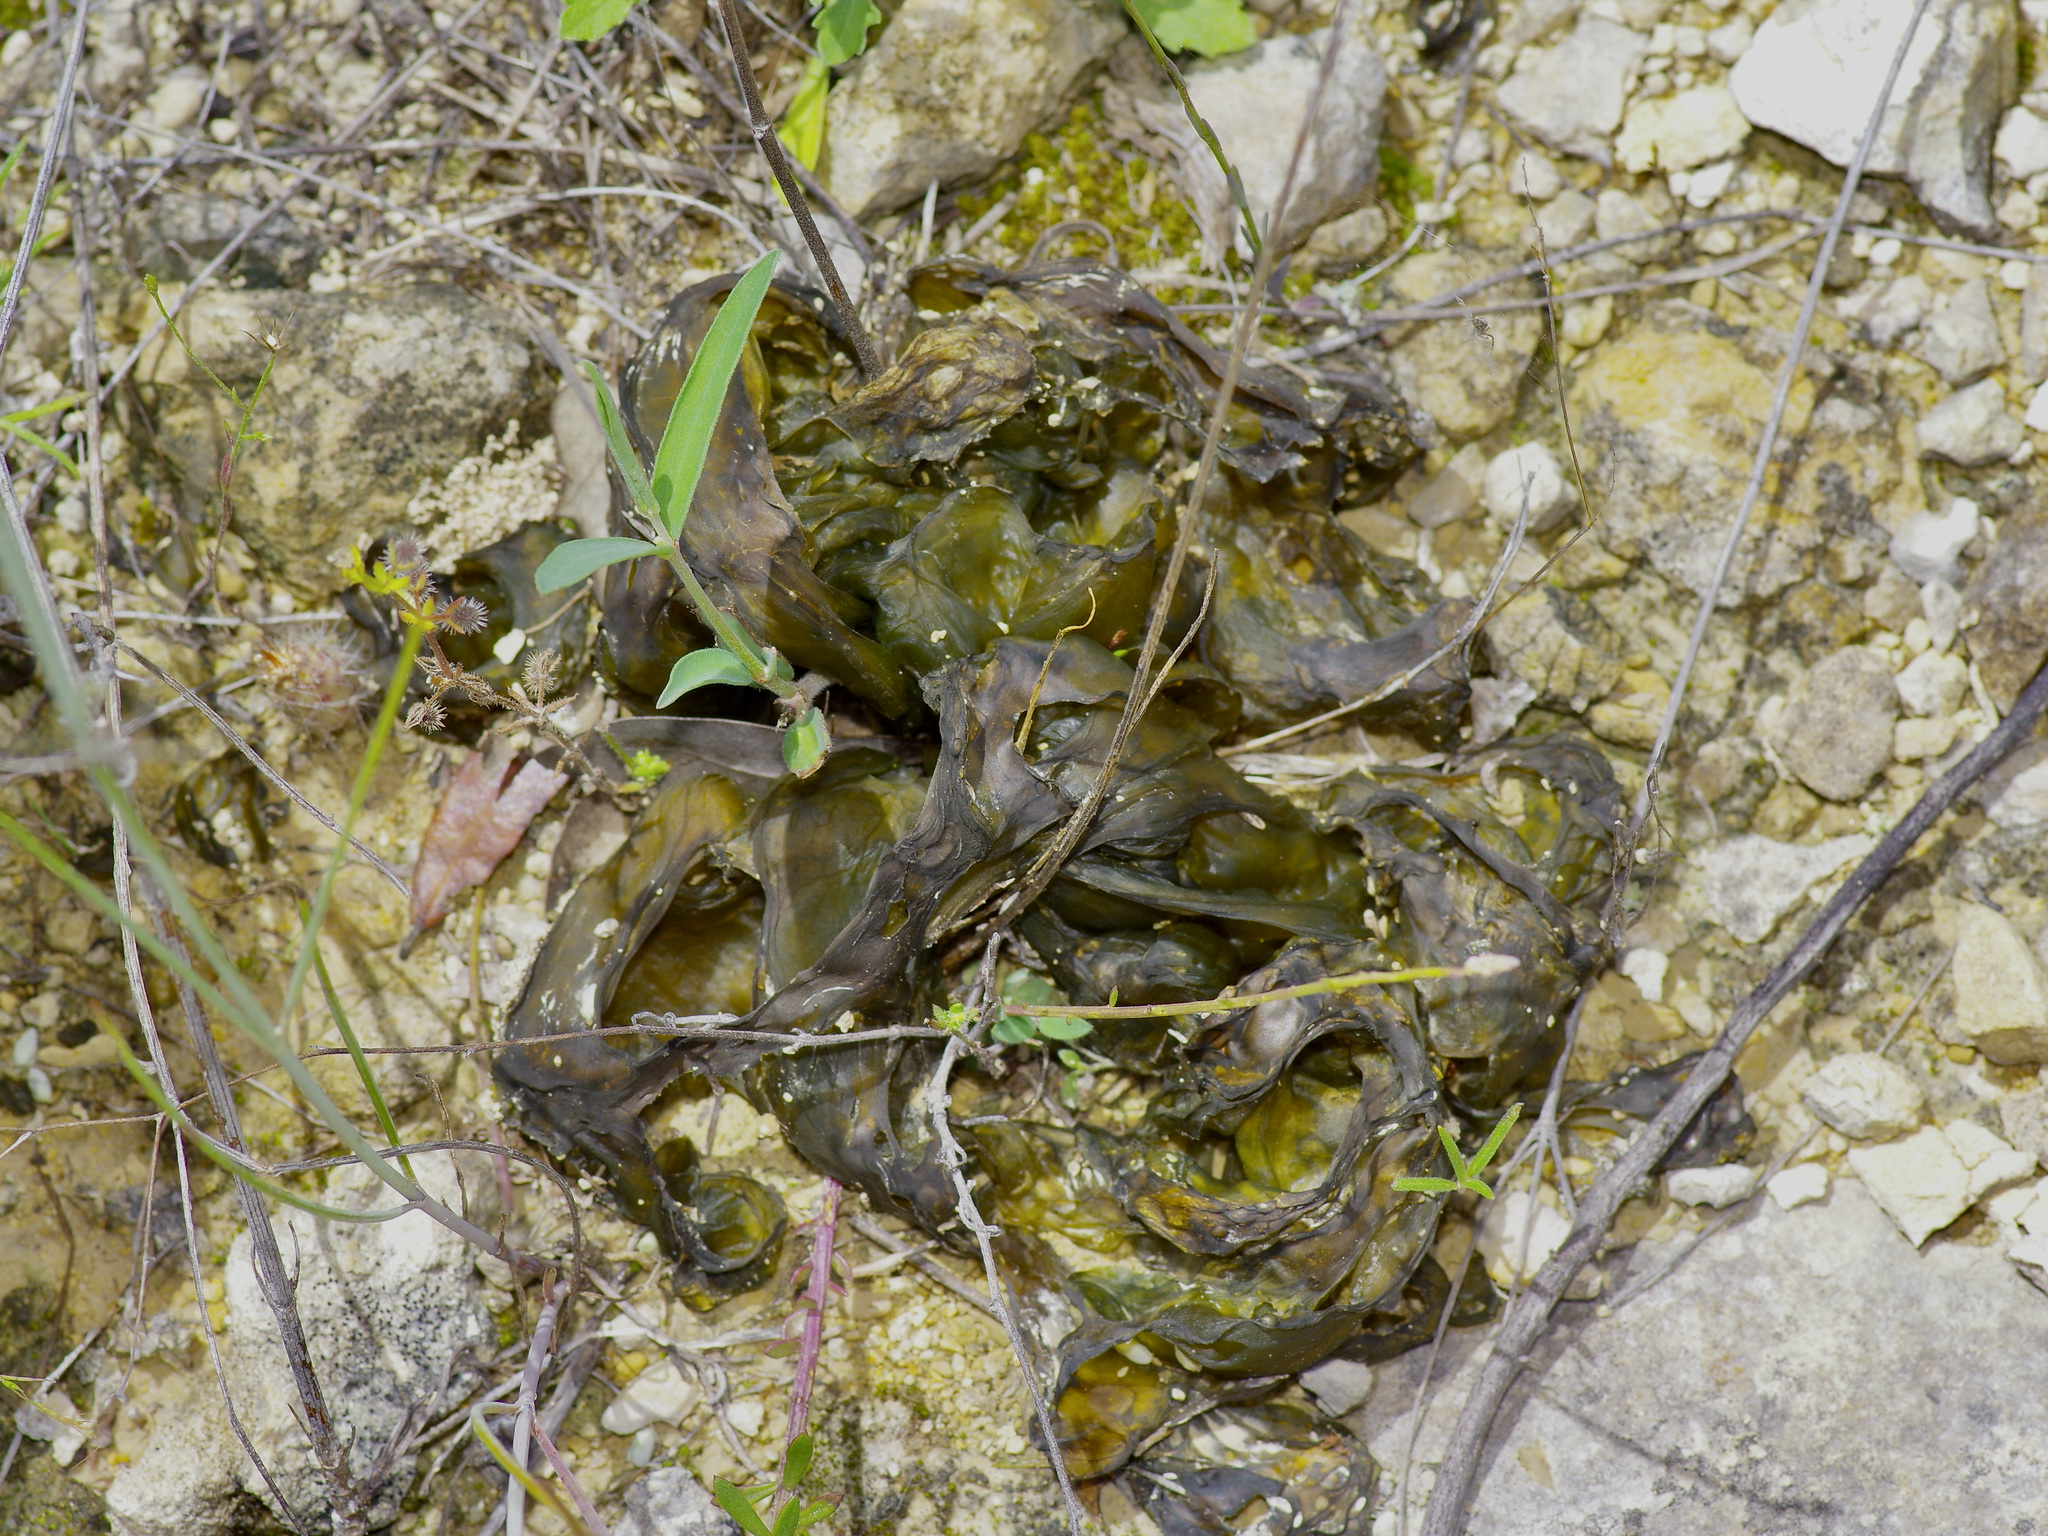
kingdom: Bacteria
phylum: Cyanobacteria
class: Cyanobacteriia
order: Cyanobacteriales
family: Nostocaceae
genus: Nostoc
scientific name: Nostoc commune
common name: Star jelly
